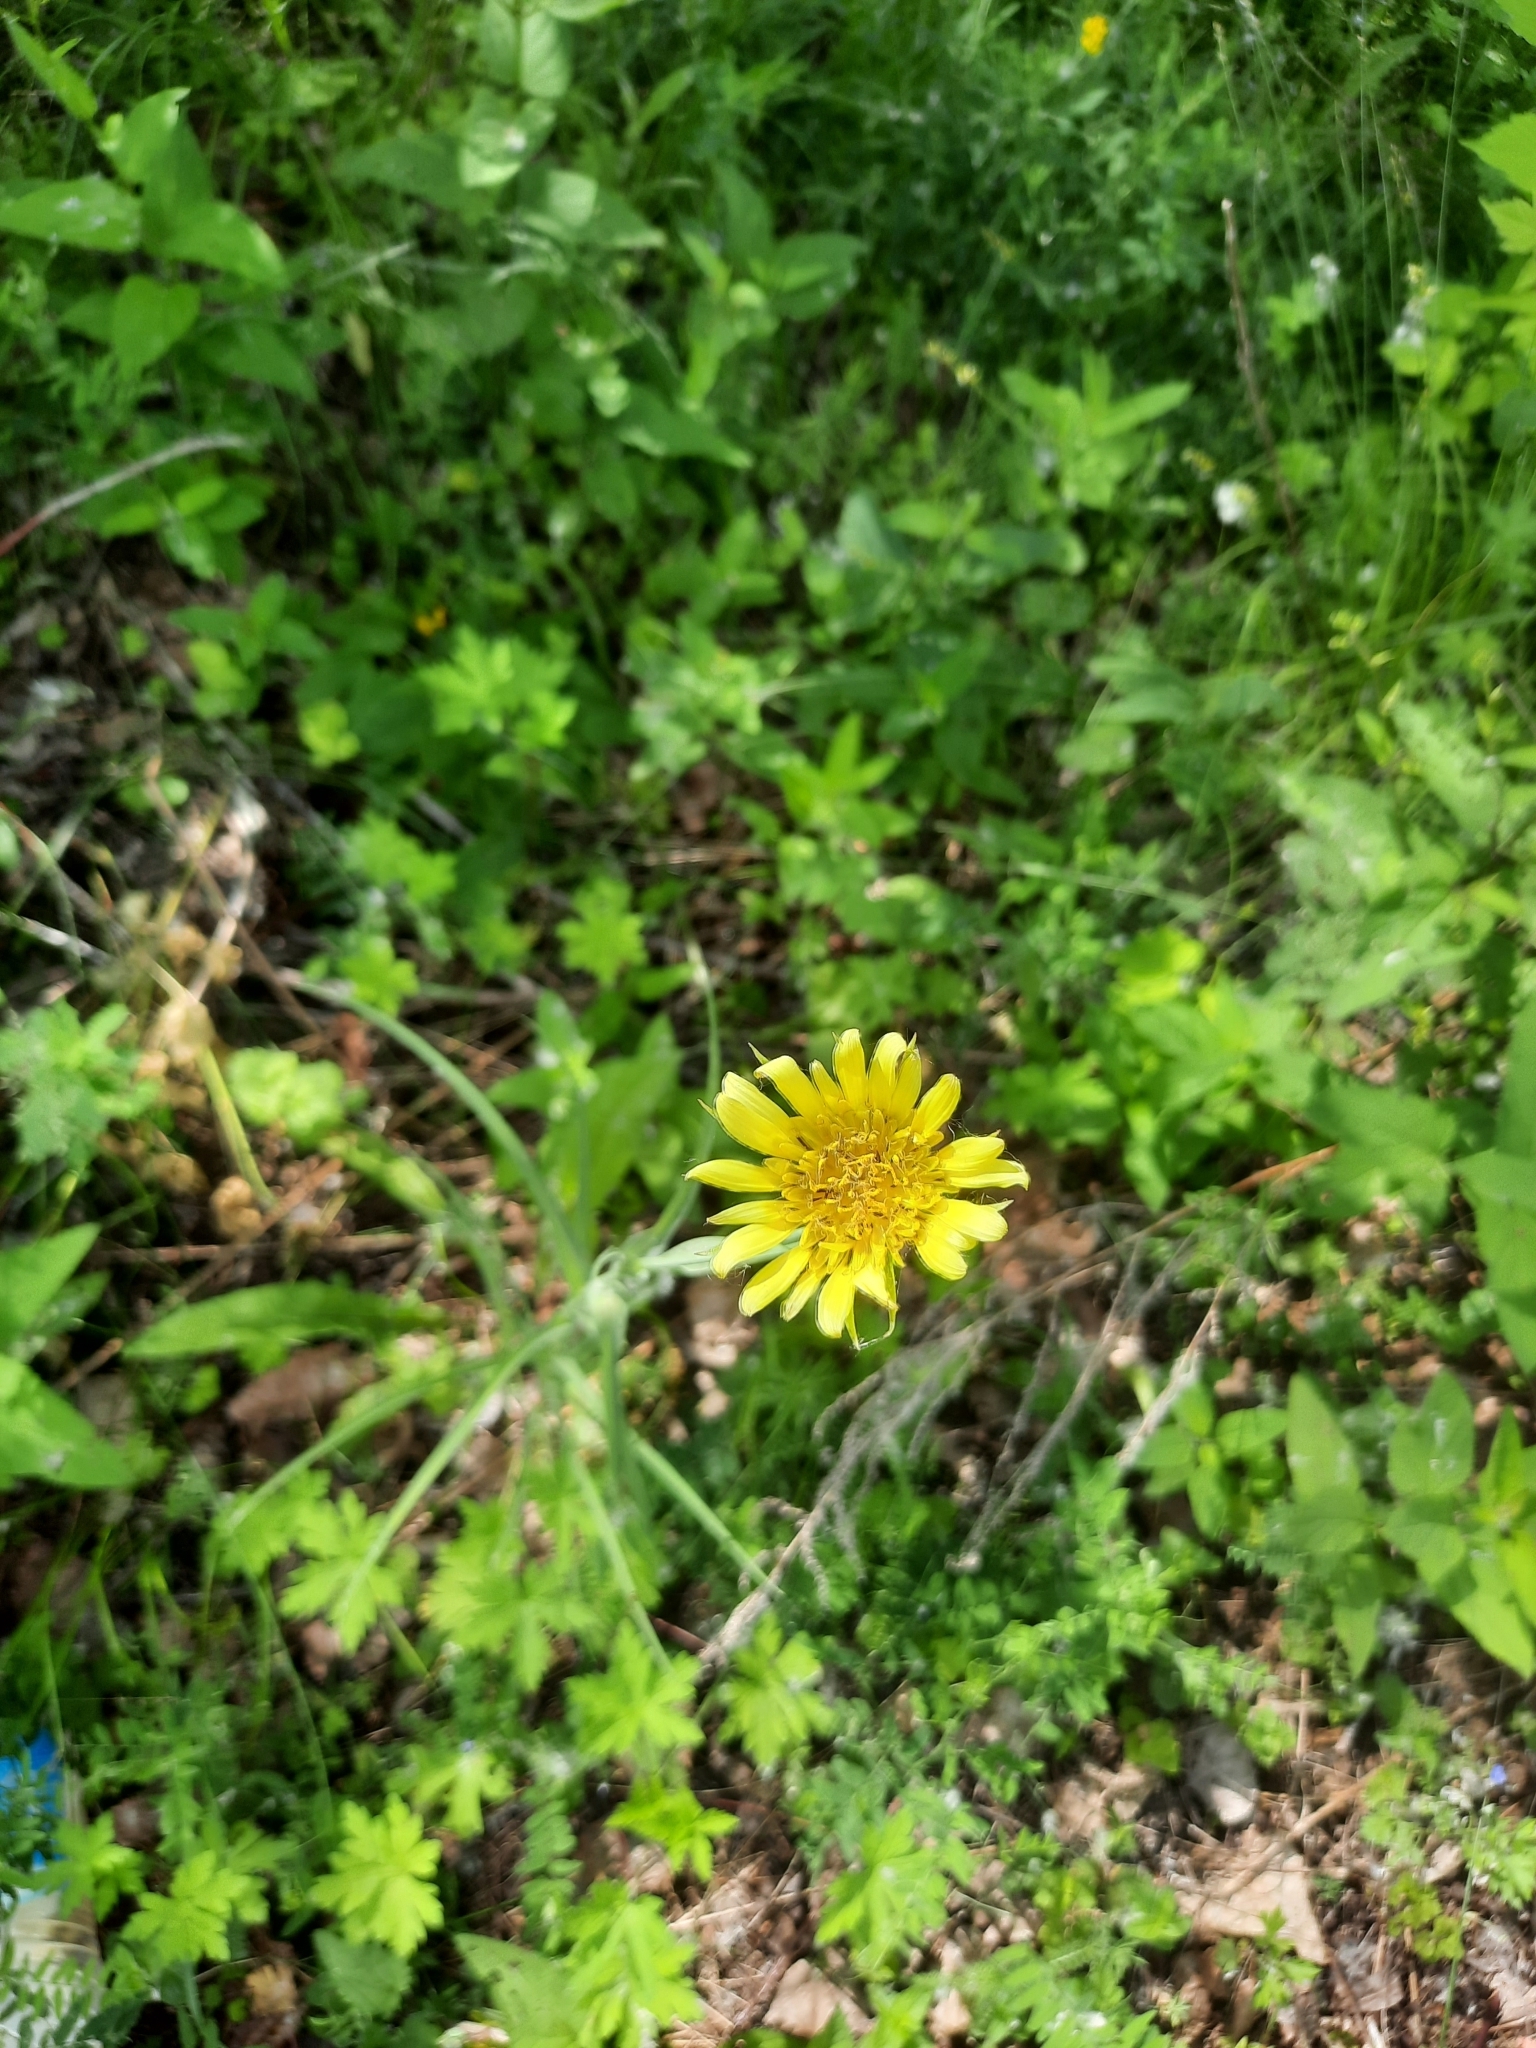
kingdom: Plantae
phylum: Tracheophyta
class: Magnoliopsida
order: Asterales
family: Asteraceae
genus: Tragopogon
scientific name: Tragopogon dubius
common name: Yellow salsify
